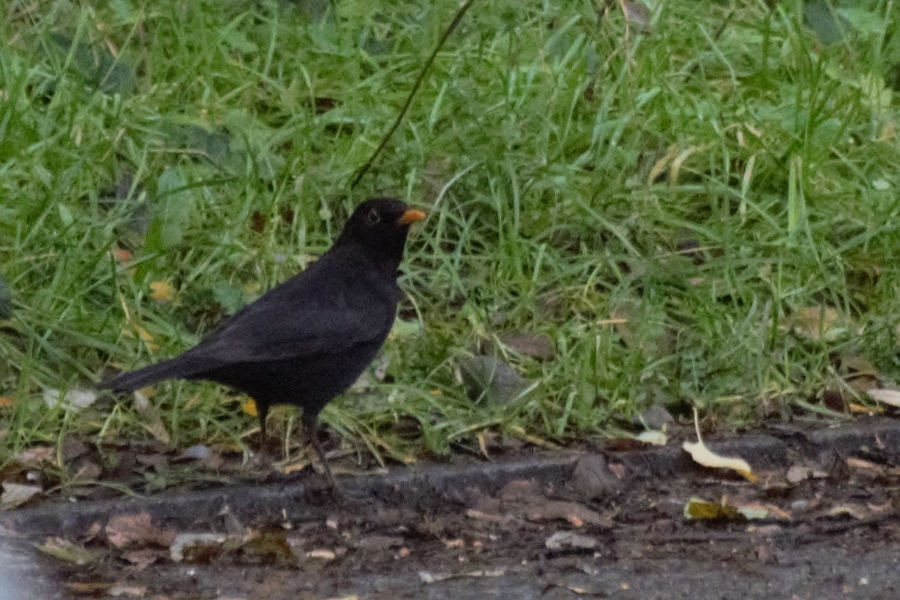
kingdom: Animalia
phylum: Chordata
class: Aves
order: Passeriformes
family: Turdidae
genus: Turdus
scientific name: Turdus merula
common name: Common blackbird
